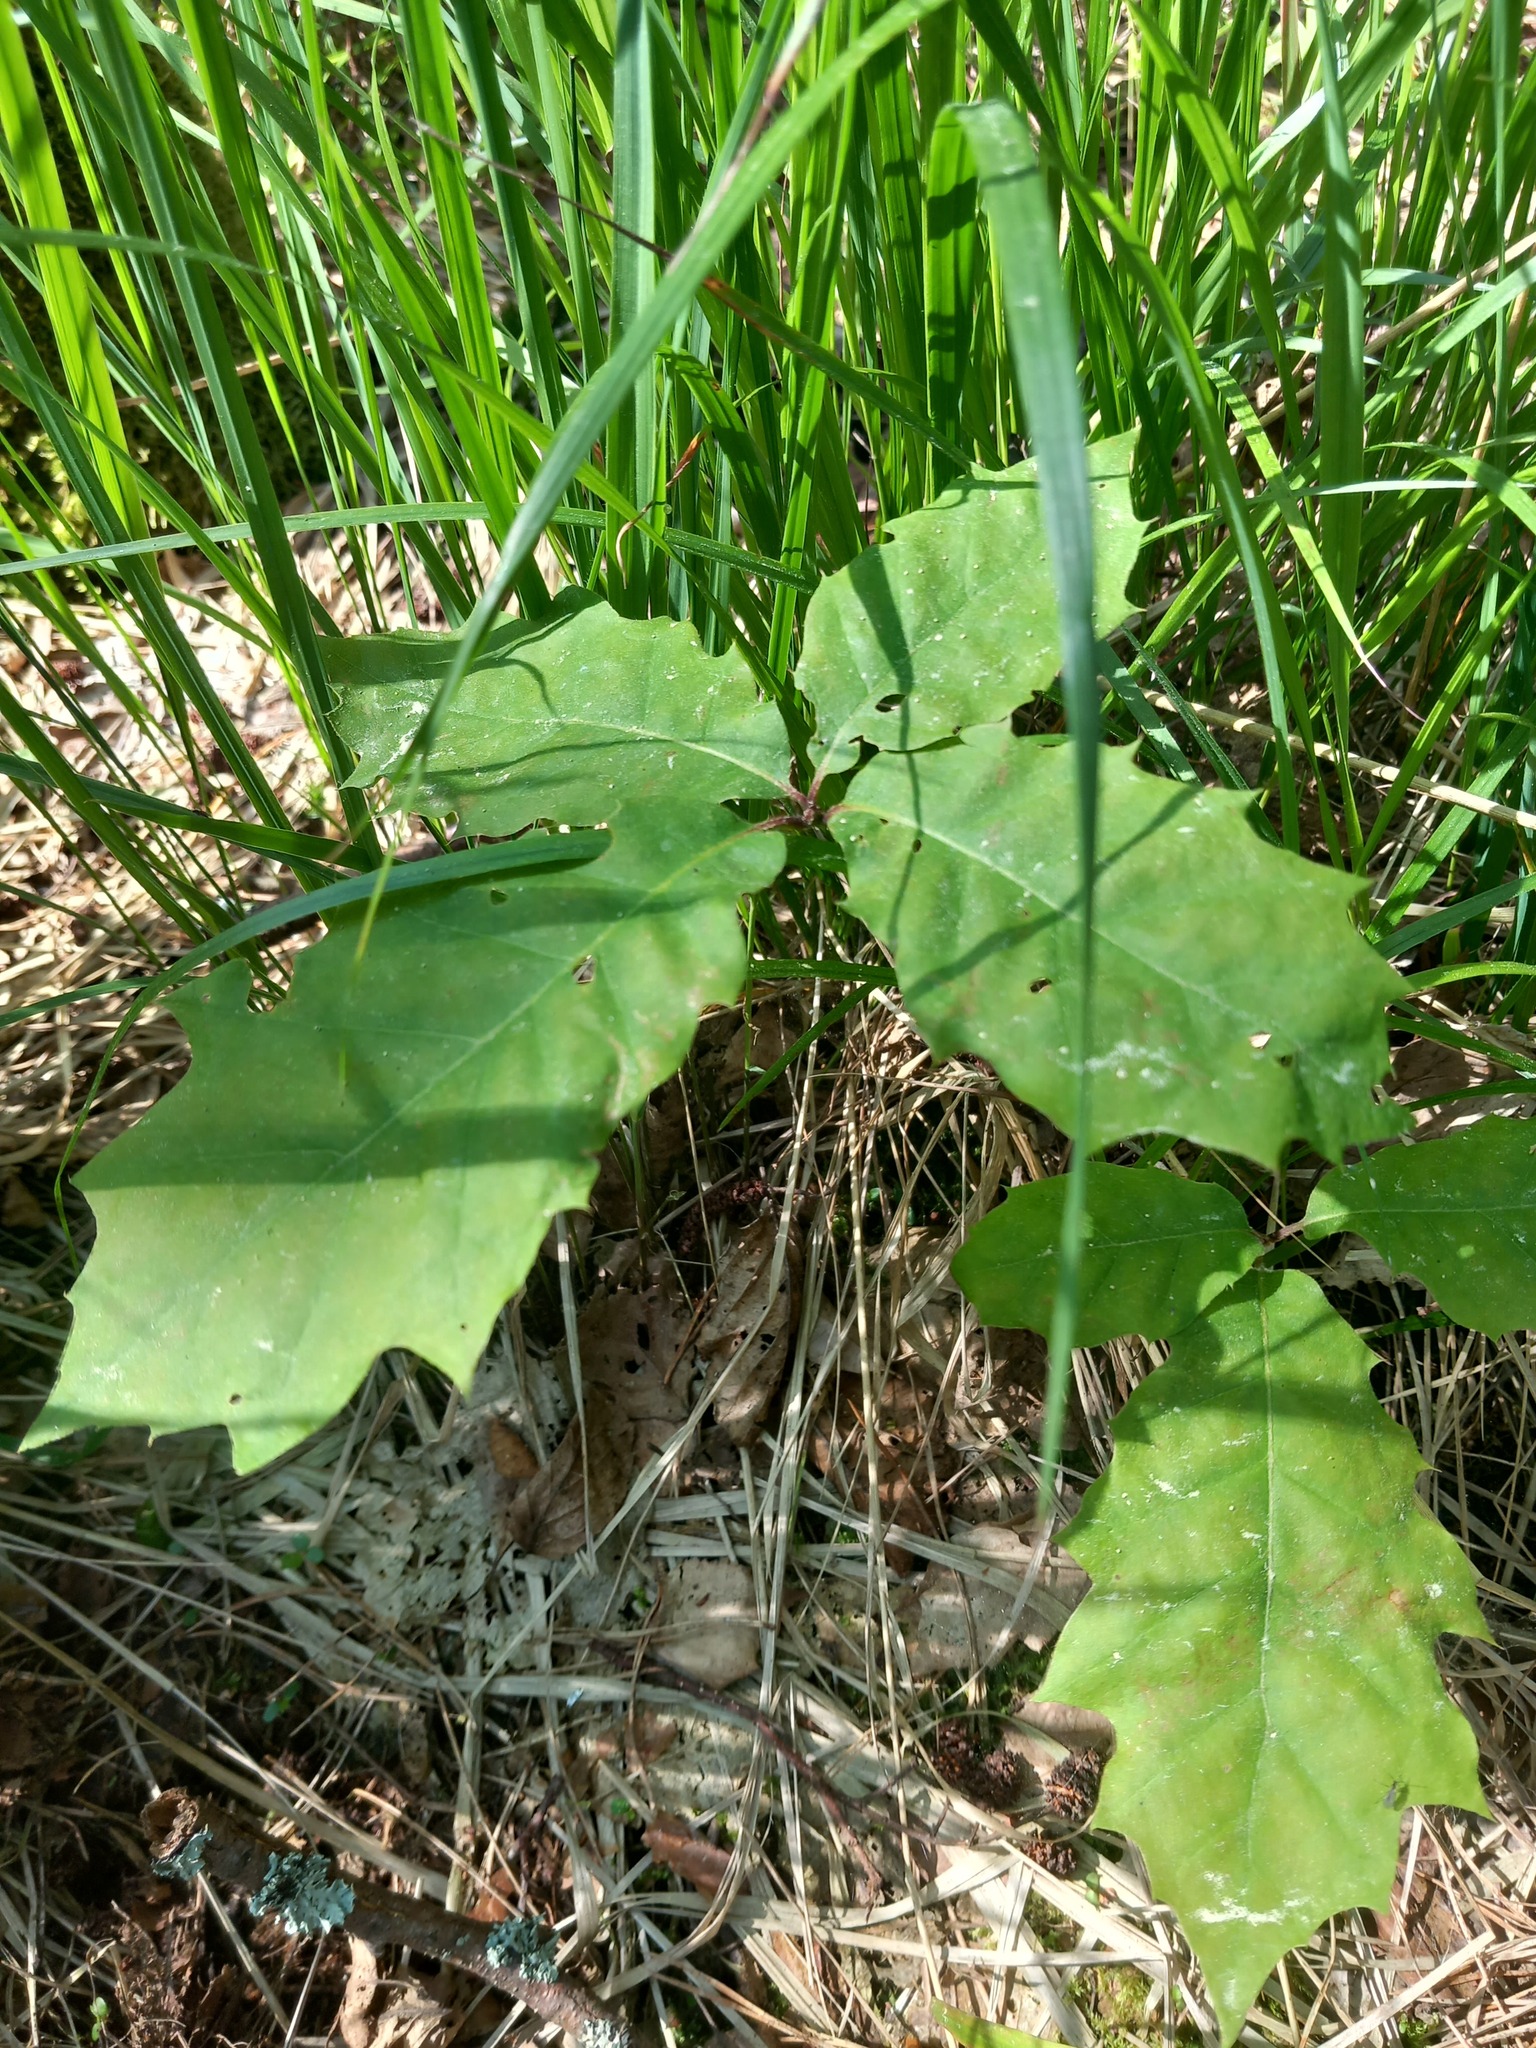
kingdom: Plantae
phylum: Tracheophyta
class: Magnoliopsida
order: Fagales
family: Fagaceae
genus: Quercus
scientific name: Quercus rubra
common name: Red oak
